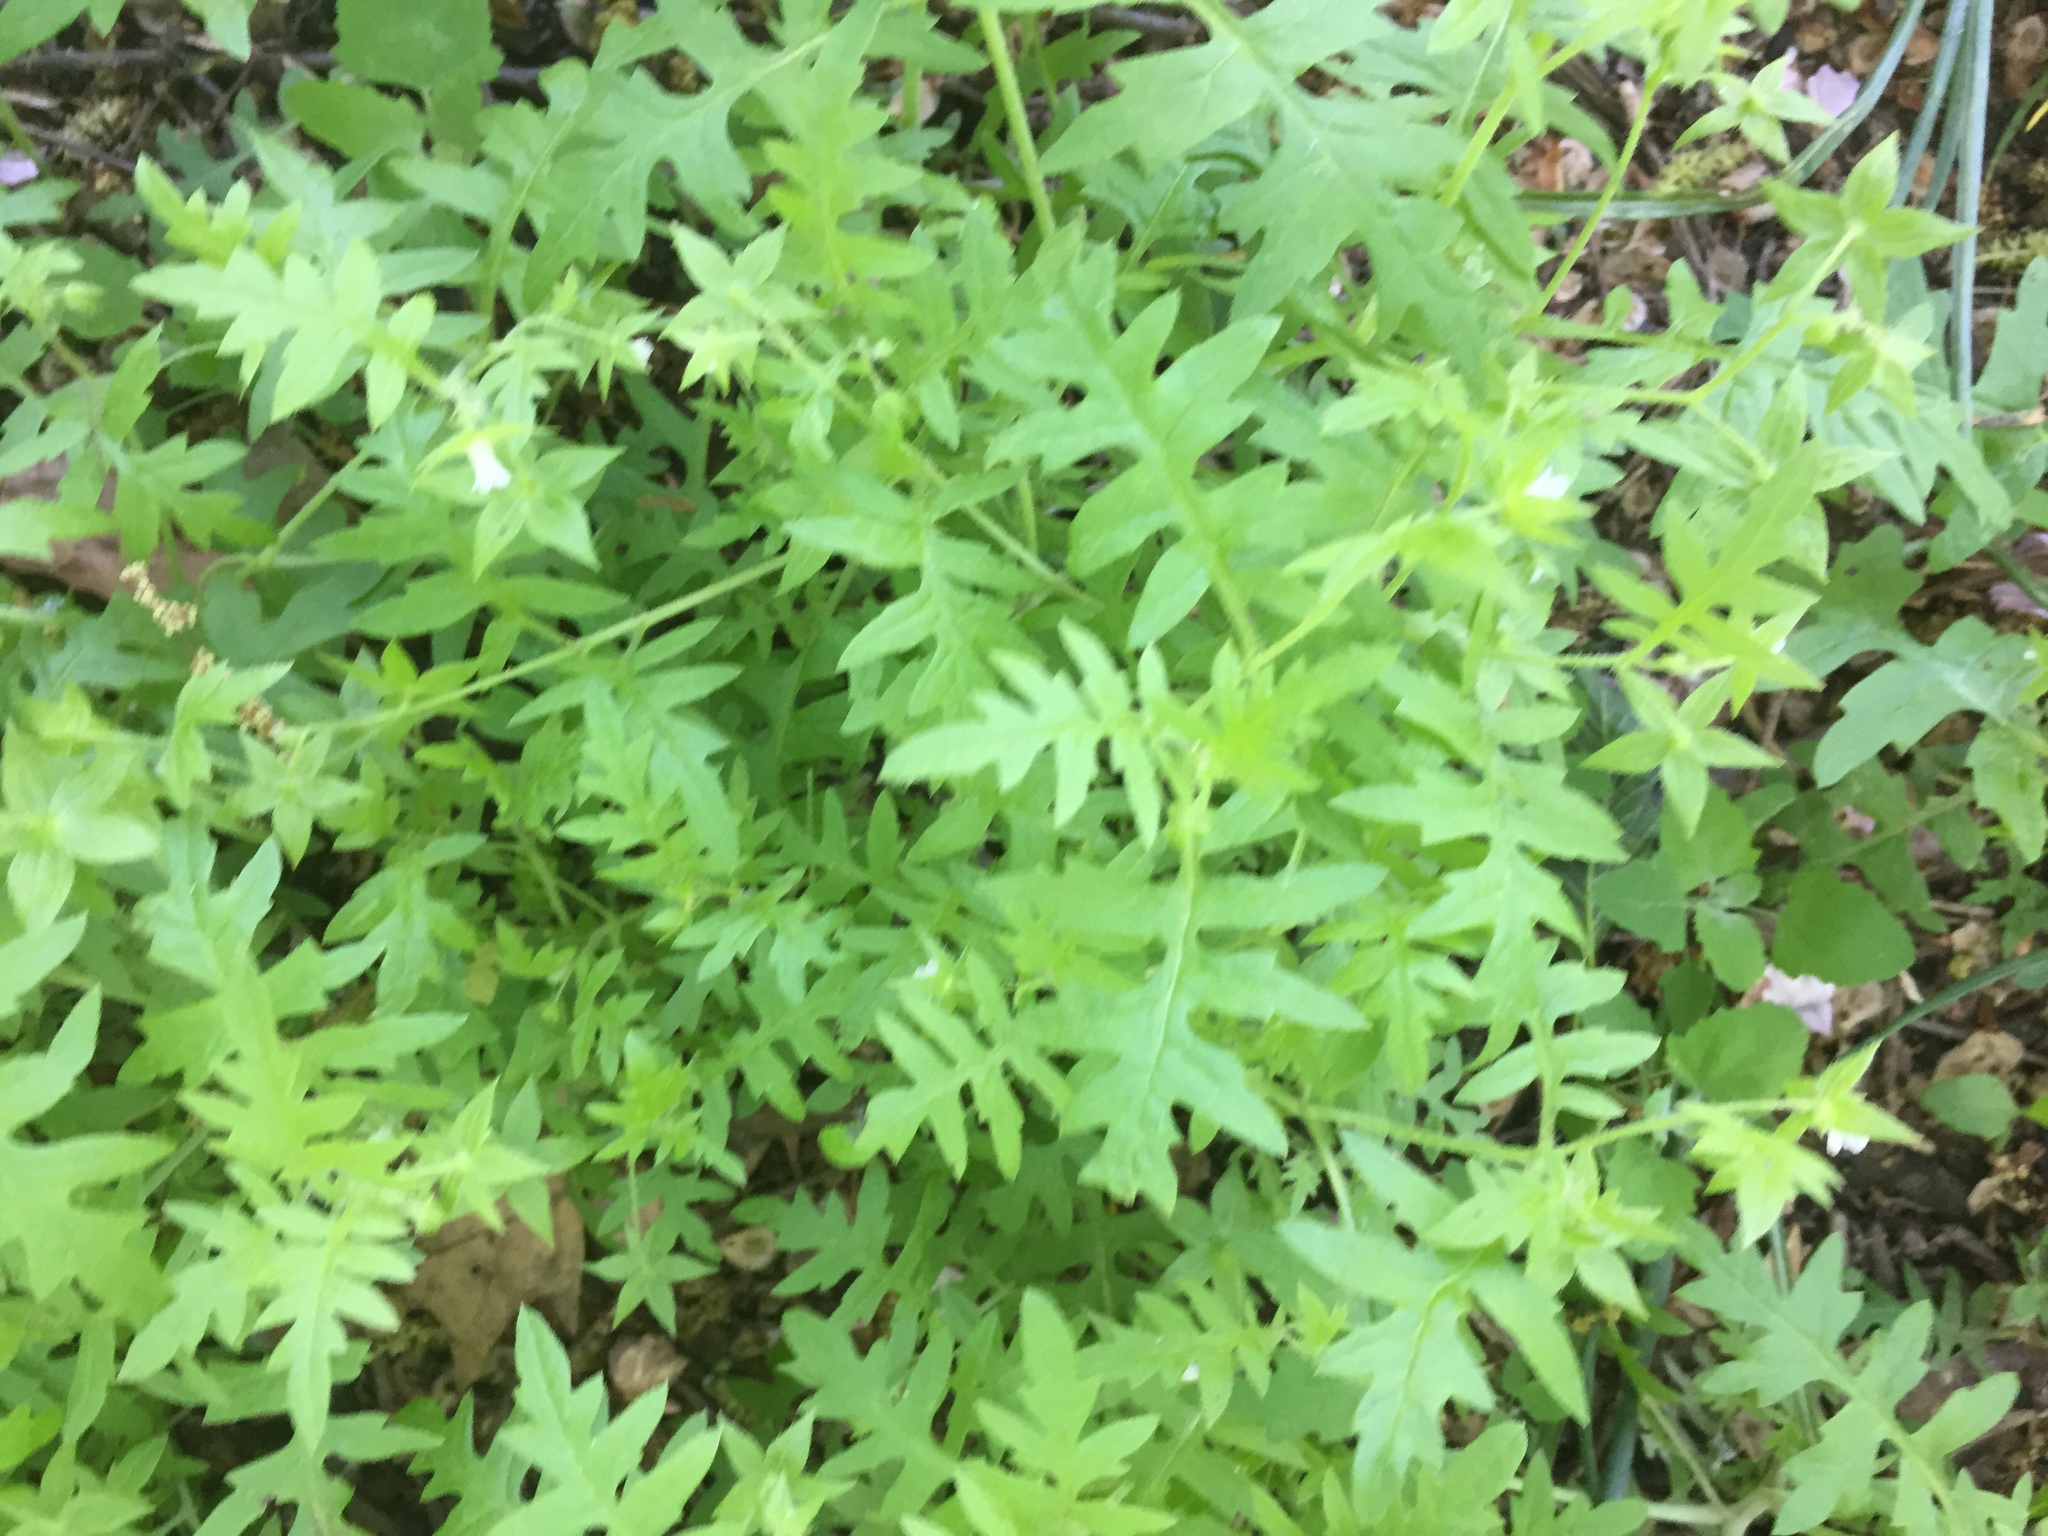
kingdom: Plantae
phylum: Tracheophyta
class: Magnoliopsida
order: Boraginales
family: Hydrophyllaceae
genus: Ellisia
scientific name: Ellisia nyctelea
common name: Aunt lucy
